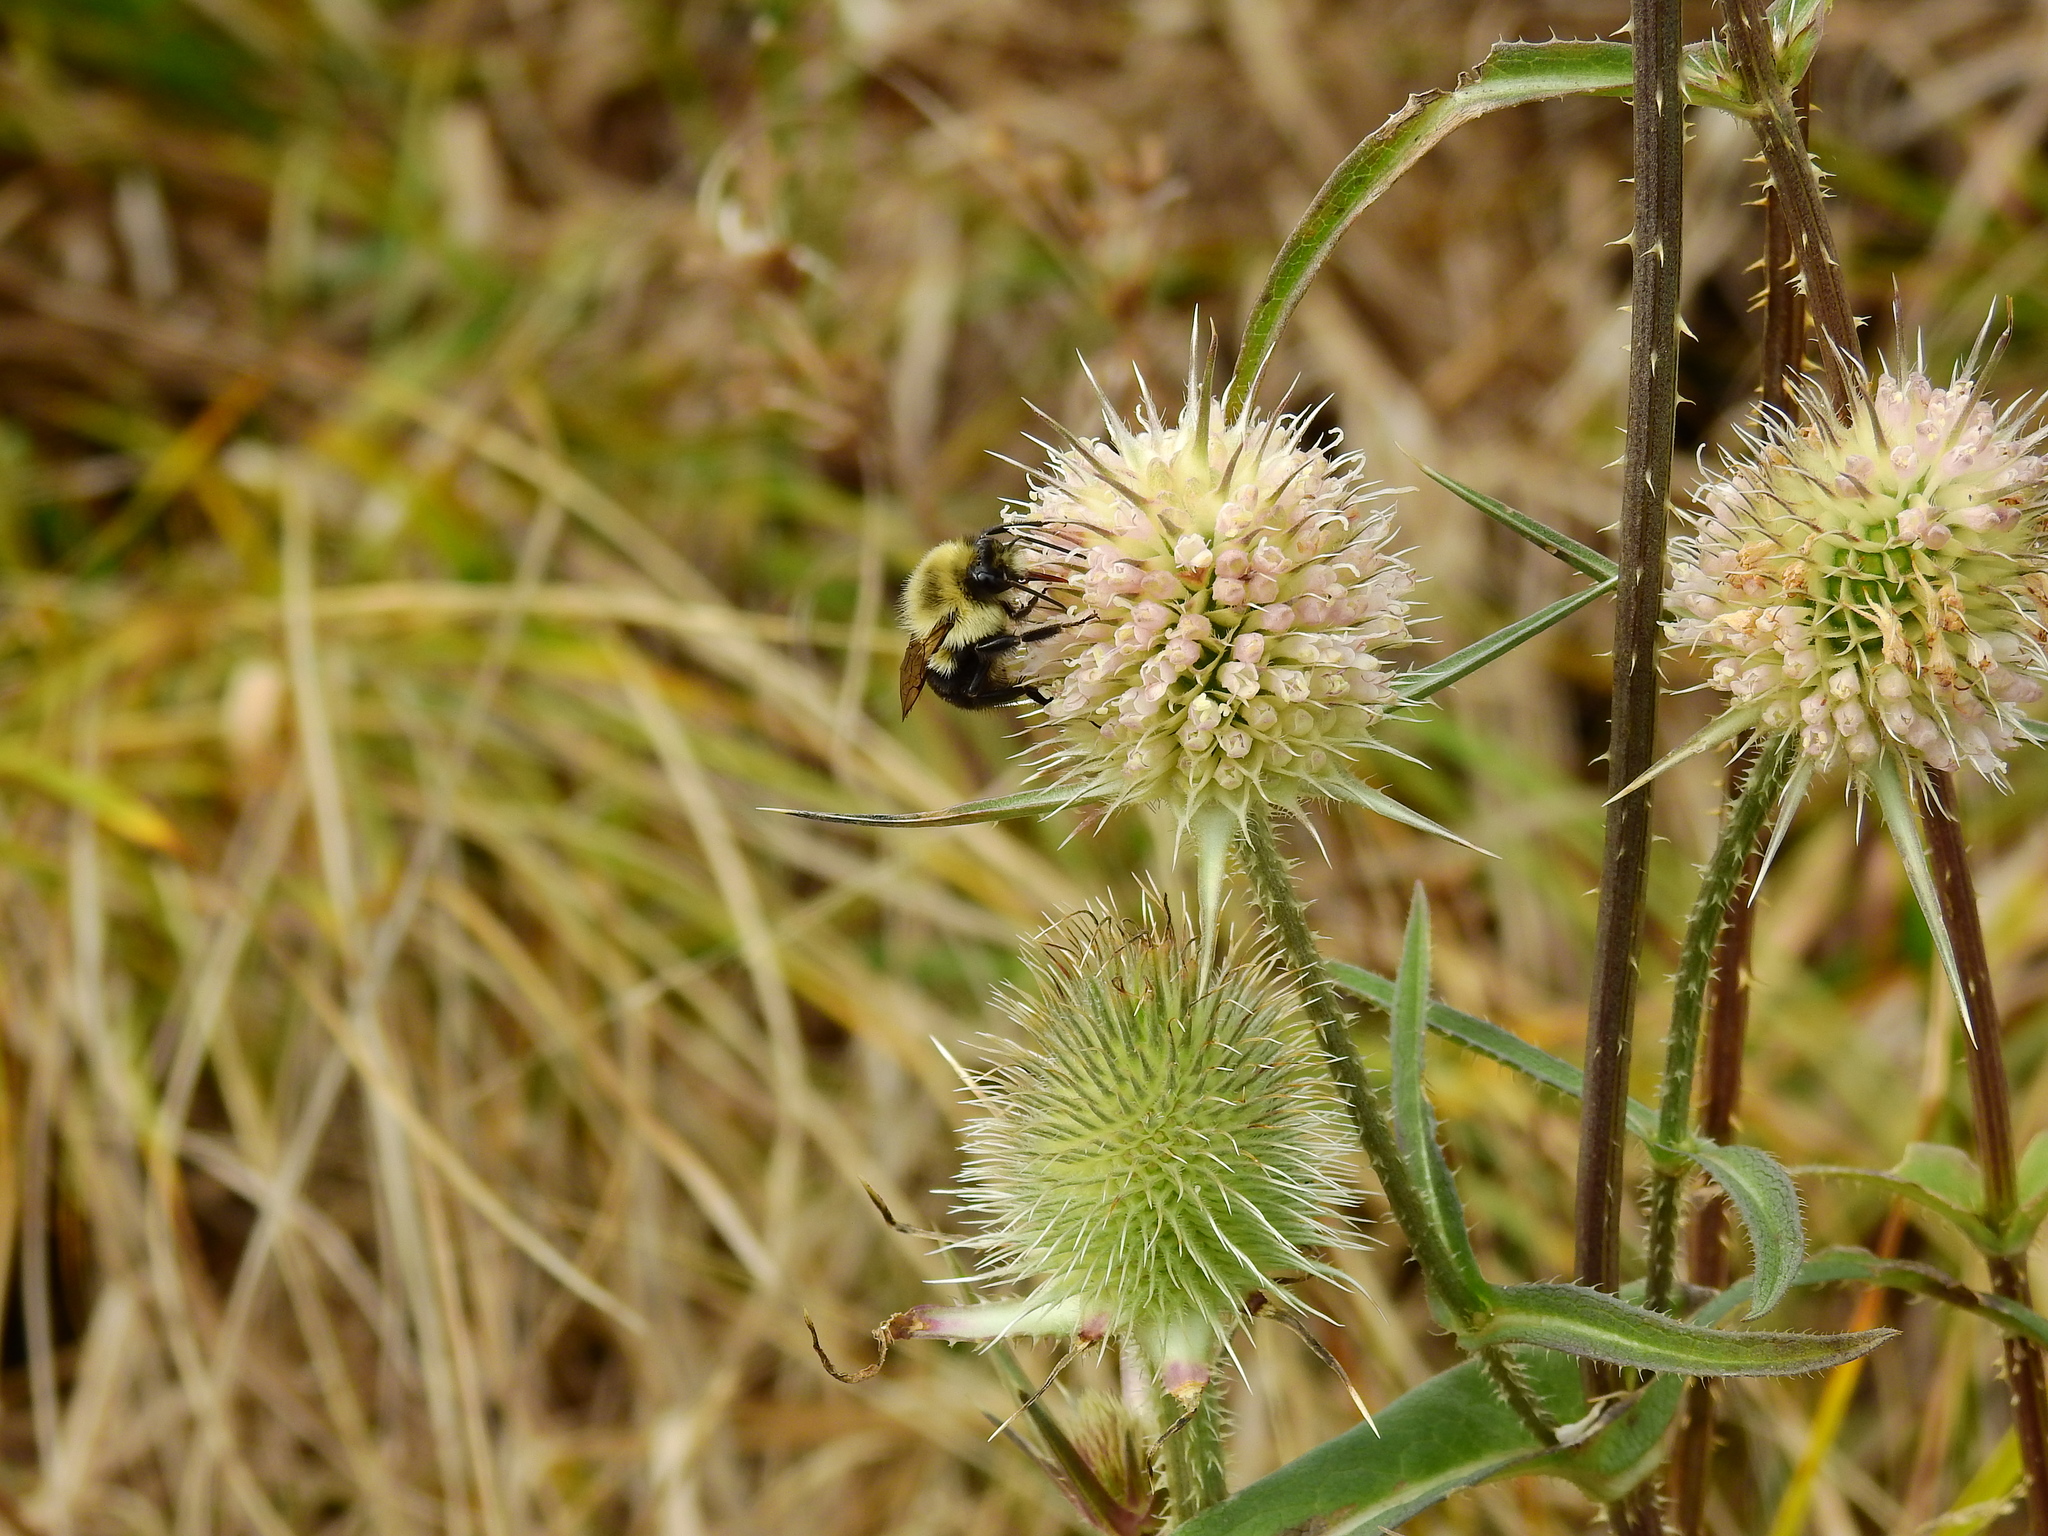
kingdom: Animalia
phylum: Arthropoda
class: Insecta
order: Hymenoptera
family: Apidae
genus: Bombus
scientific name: Bombus impatiens
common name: Common eastern bumble bee
